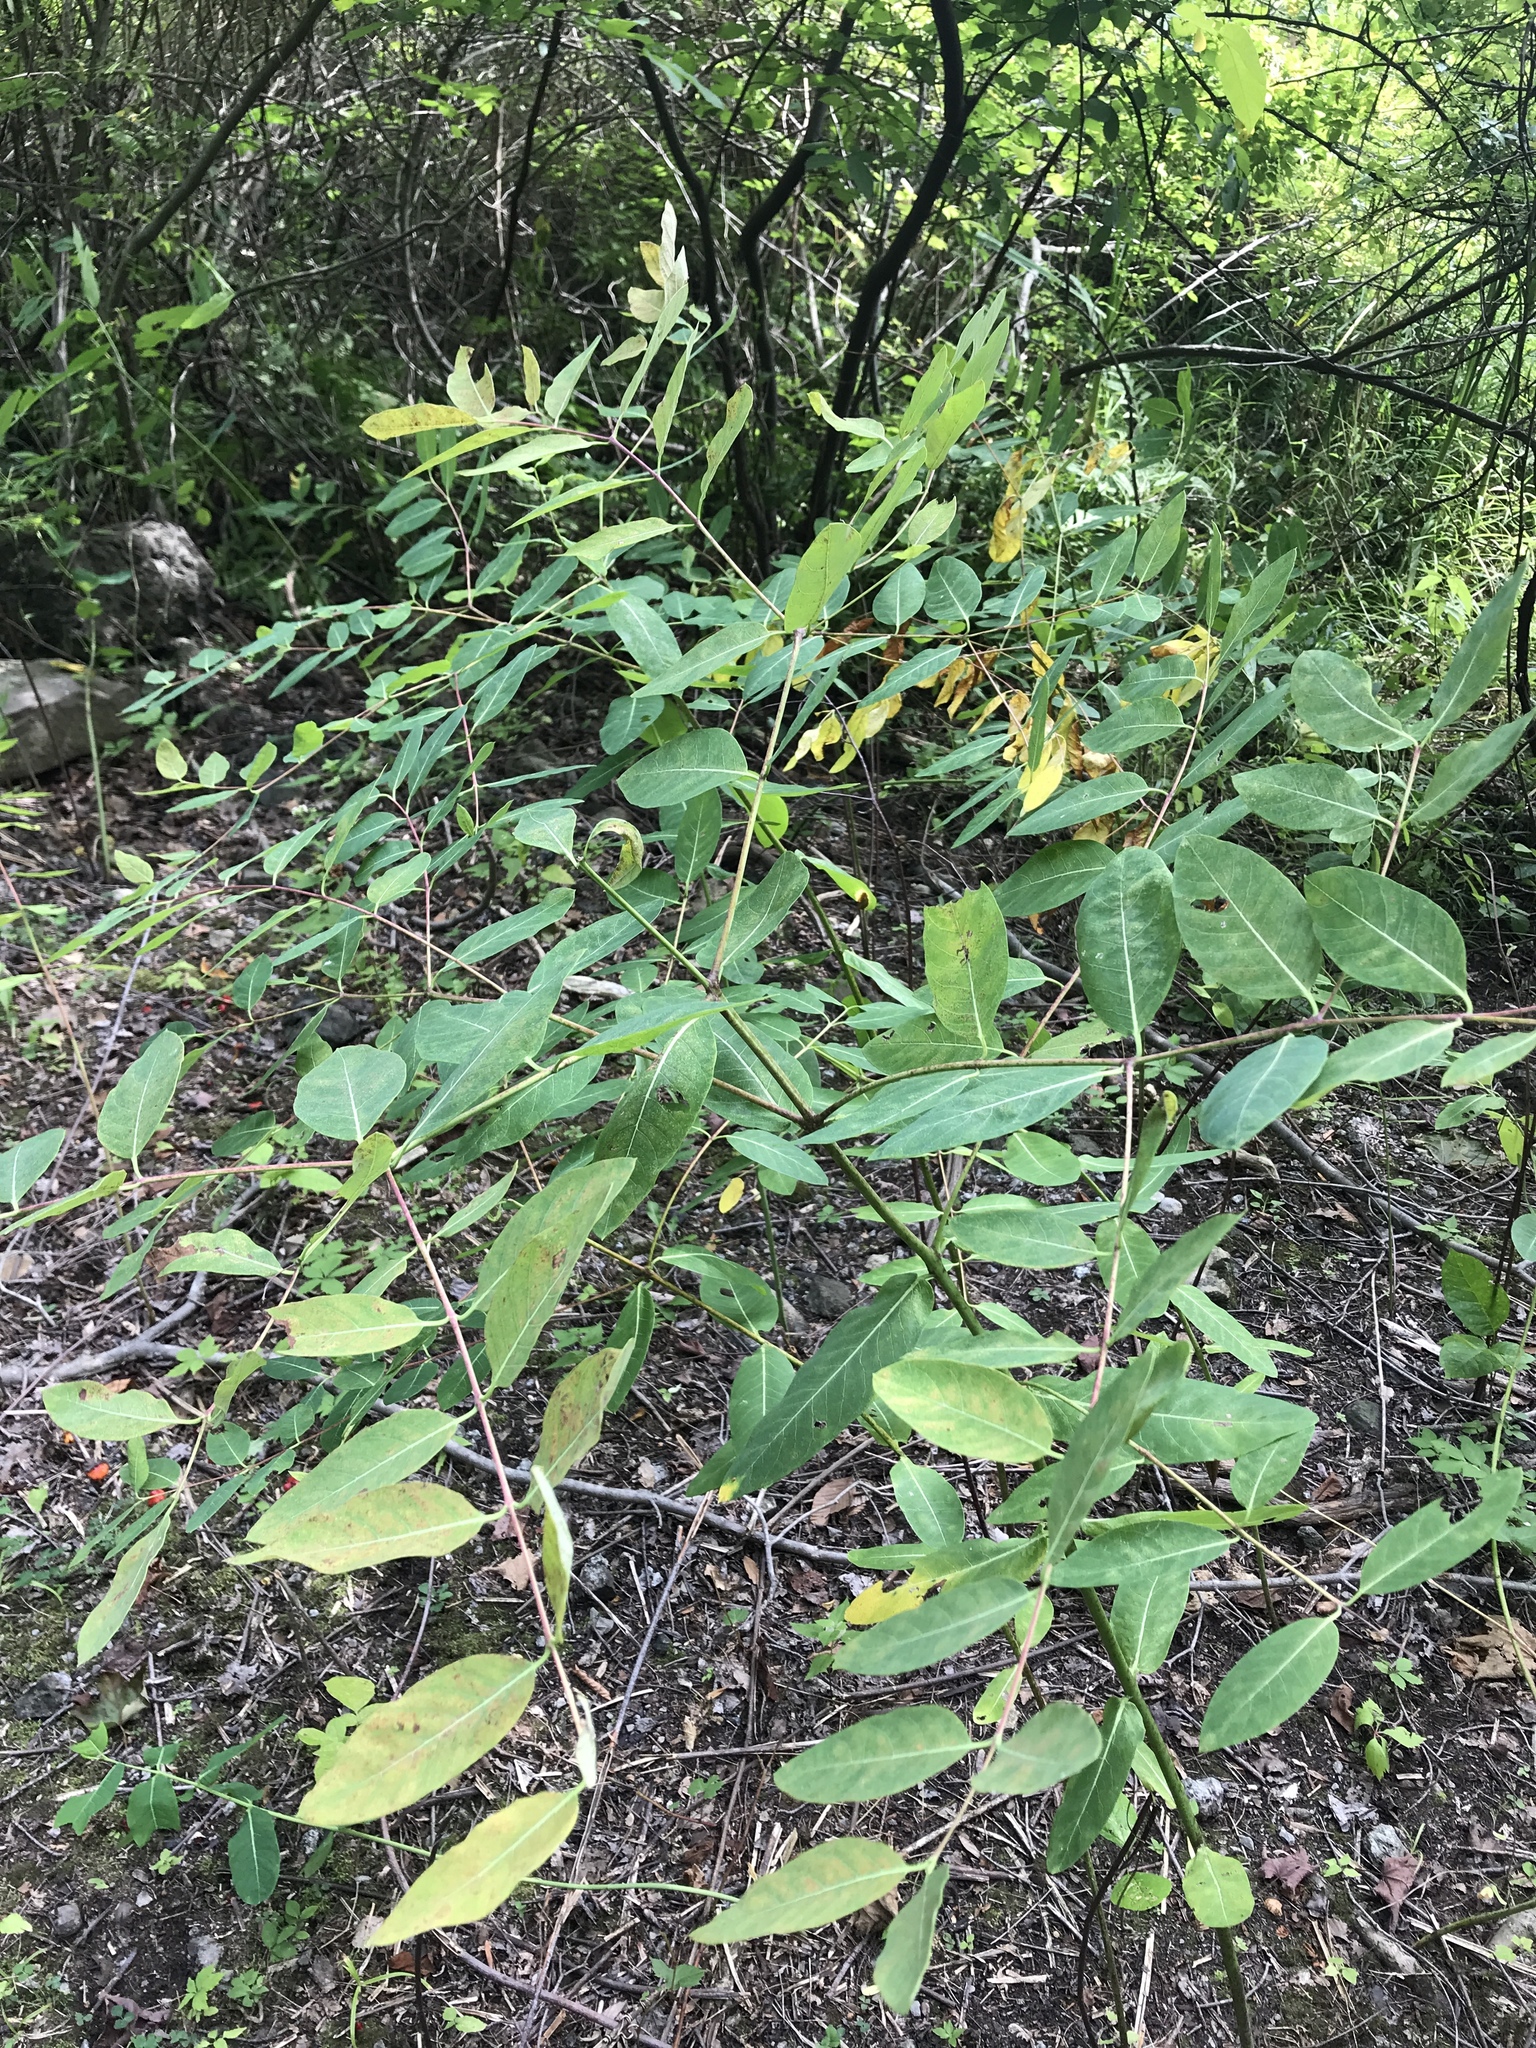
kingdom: Plantae
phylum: Tracheophyta
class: Magnoliopsida
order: Gentianales
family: Apocynaceae
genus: Apocynum
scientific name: Apocynum cannabinum
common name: Hemp dogbane
